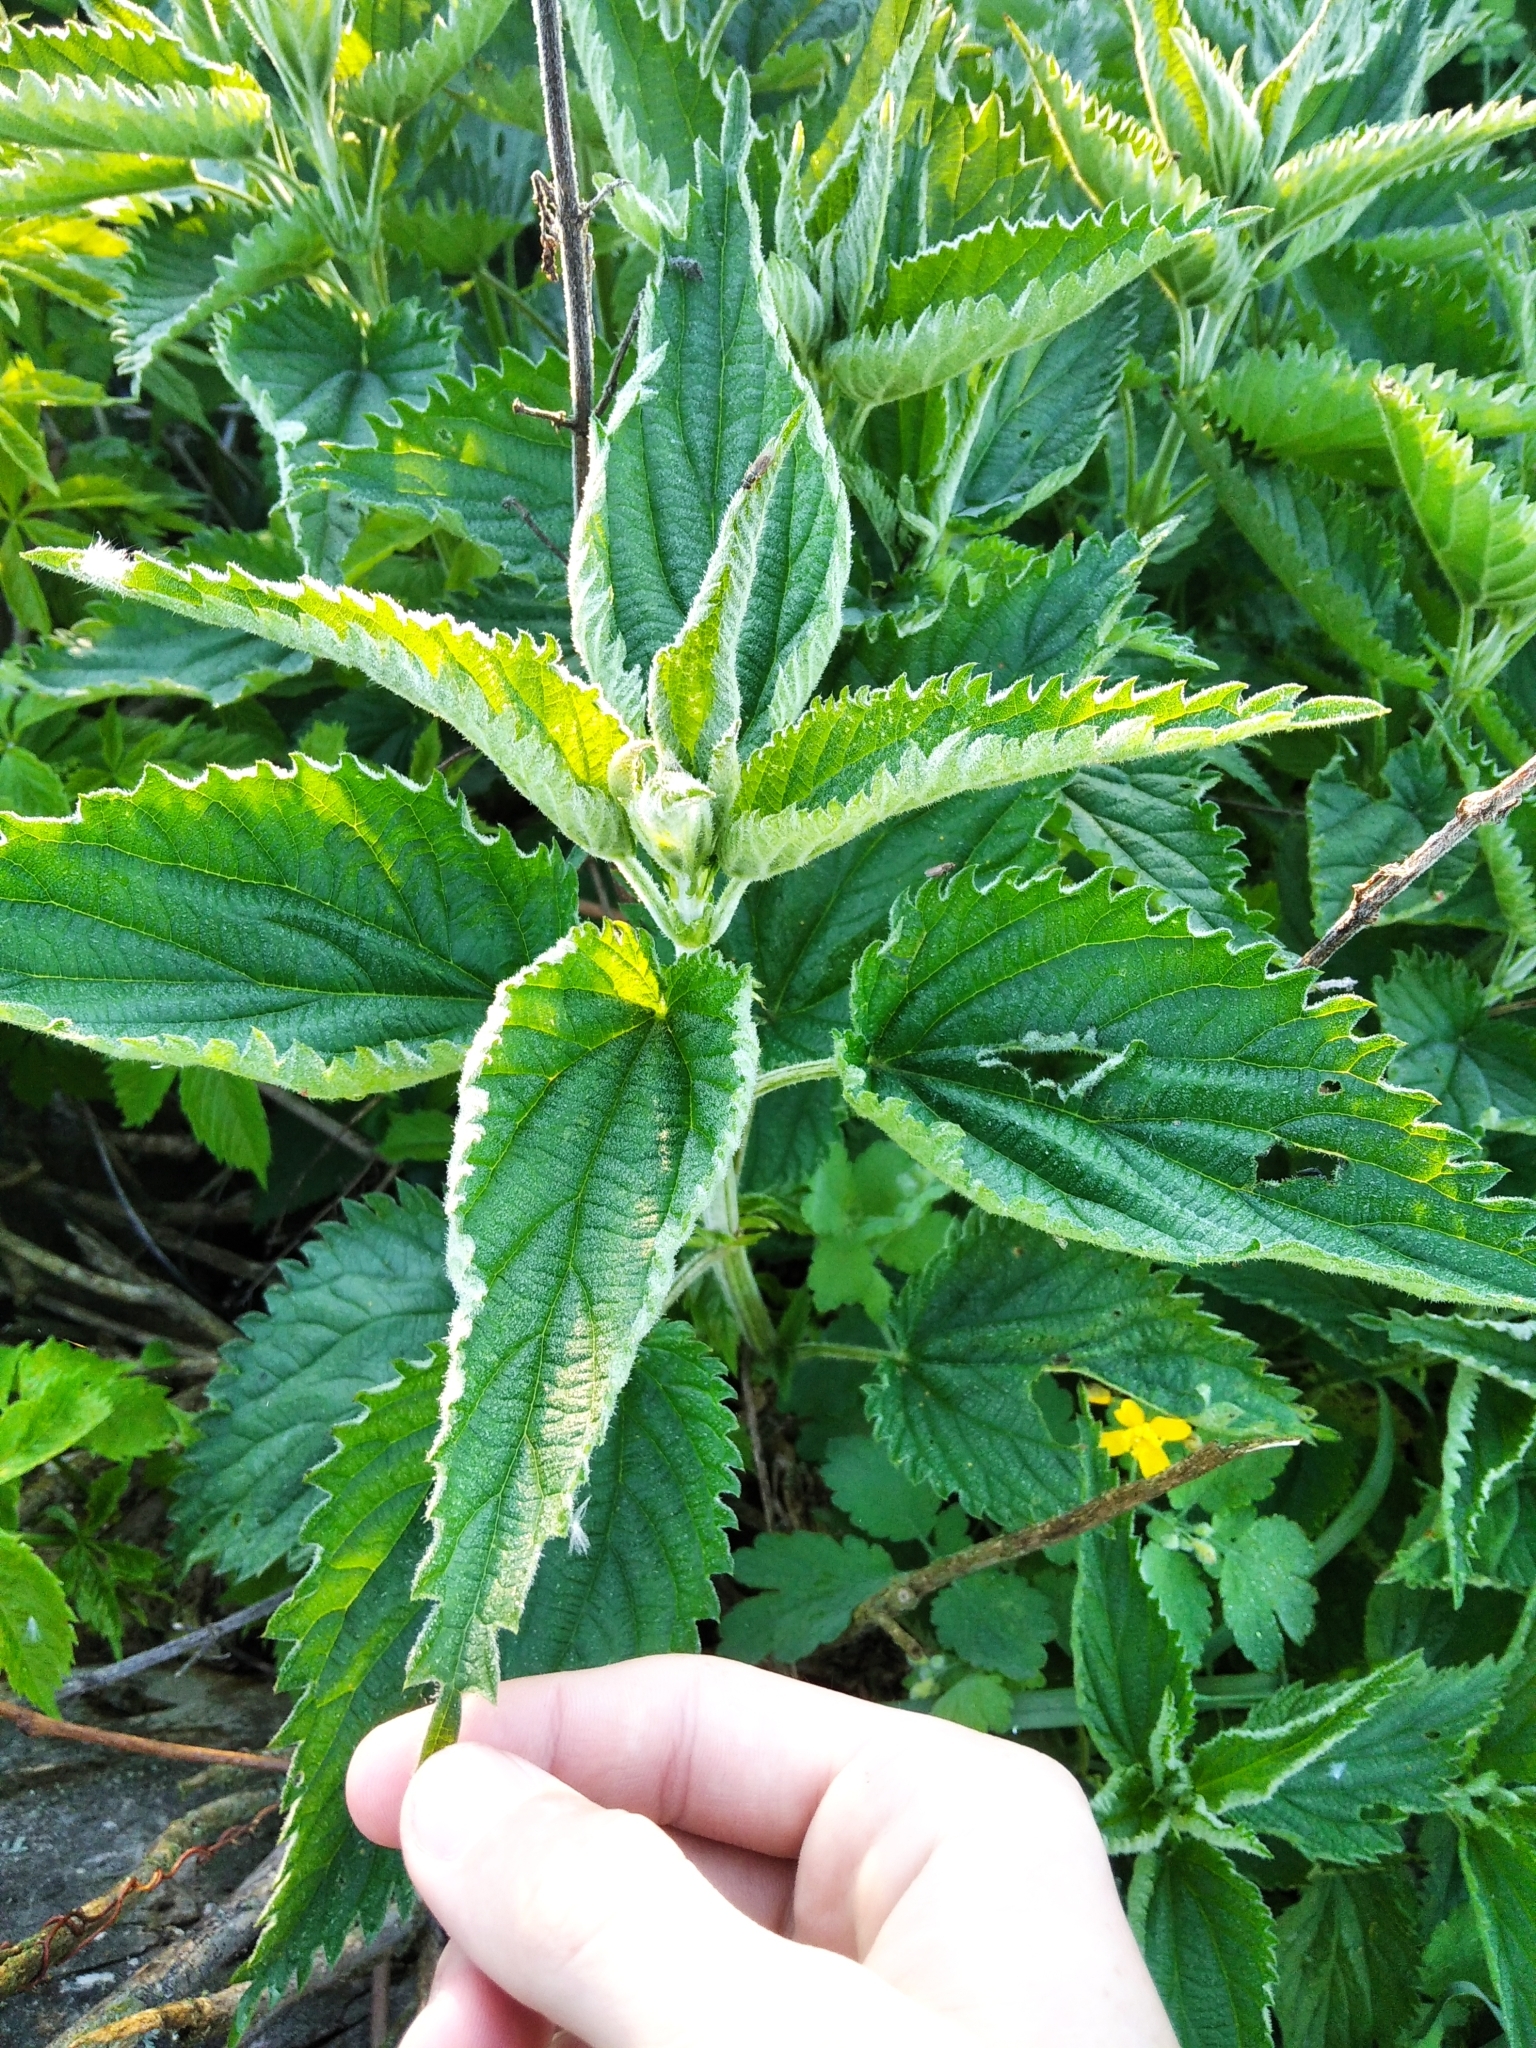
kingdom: Plantae
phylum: Tracheophyta
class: Magnoliopsida
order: Rosales
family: Urticaceae
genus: Urtica
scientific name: Urtica dioica
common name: Common nettle
